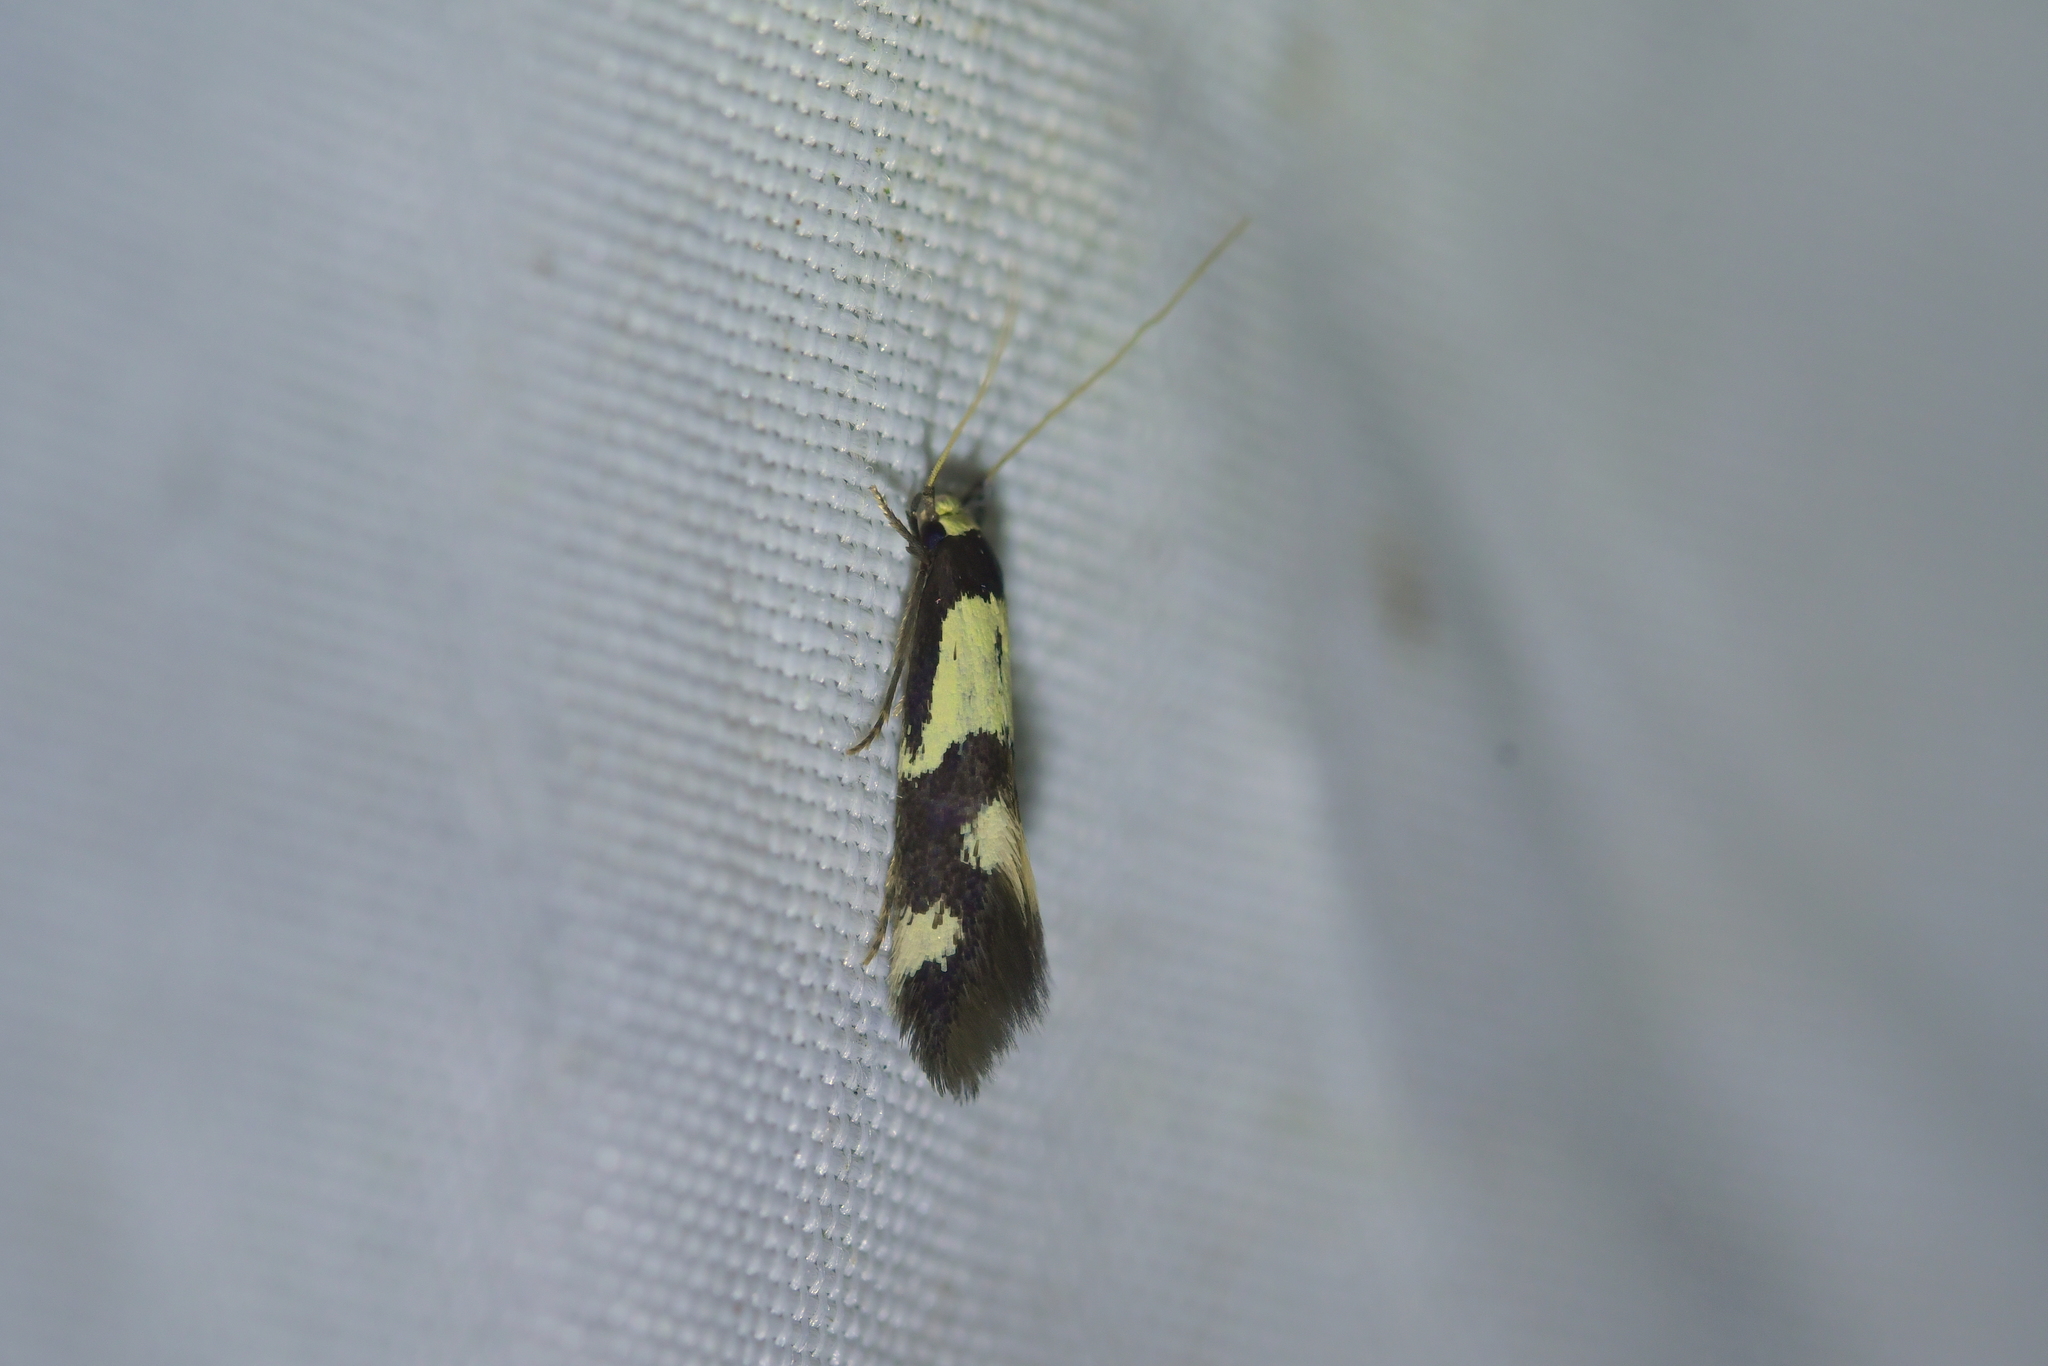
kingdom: Animalia
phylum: Arthropoda
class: Insecta
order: Lepidoptera
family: Tineidae
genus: Opogona
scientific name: Opogona comptella
